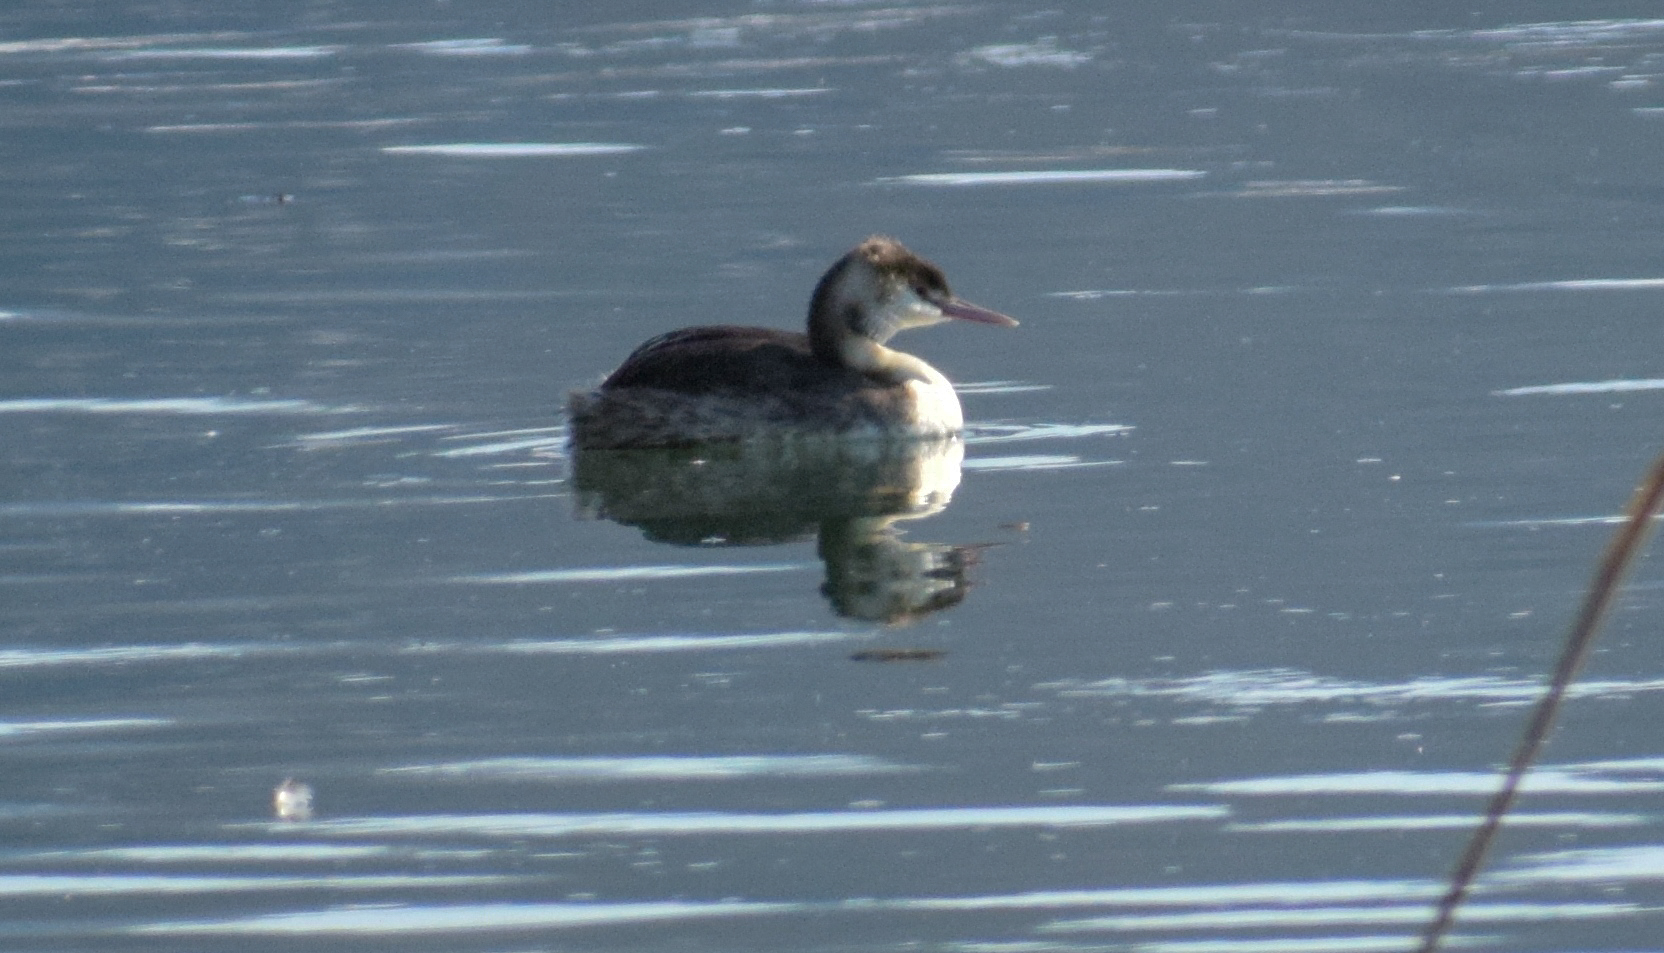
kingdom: Animalia
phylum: Chordata
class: Aves
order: Podicipediformes
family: Podicipedidae
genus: Podiceps
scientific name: Podiceps cristatus
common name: Great crested grebe
